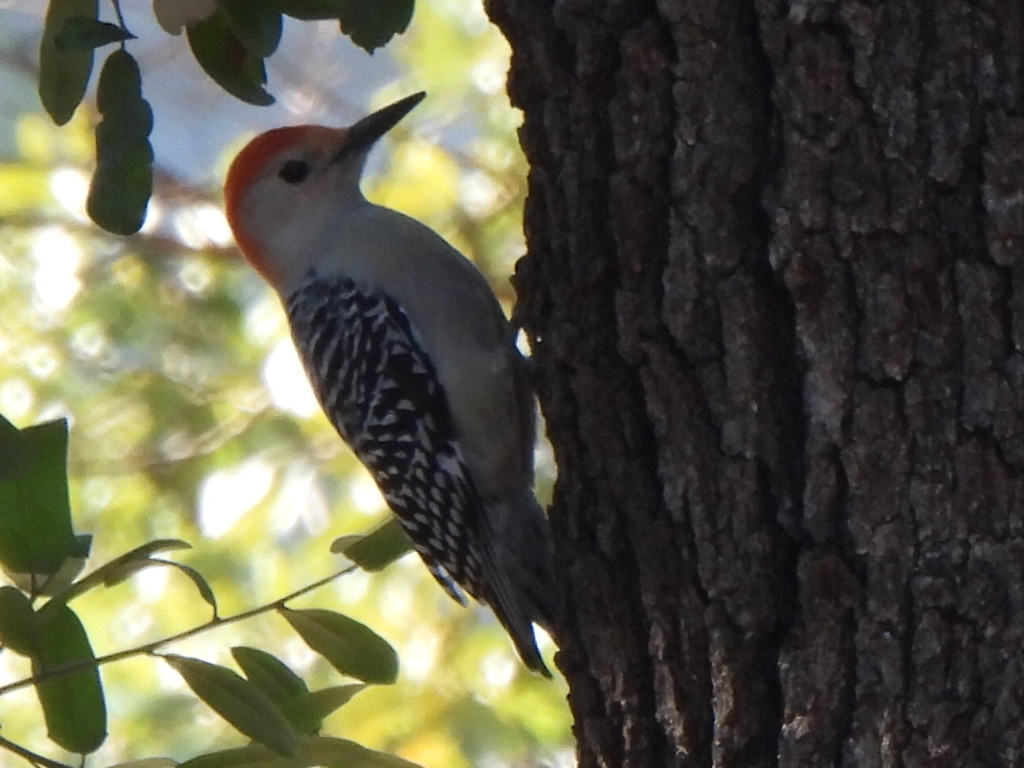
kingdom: Animalia
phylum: Chordata
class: Aves
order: Piciformes
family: Picidae
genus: Melanerpes
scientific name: Melanerpes carolinus
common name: Red-bellied woodpecker
